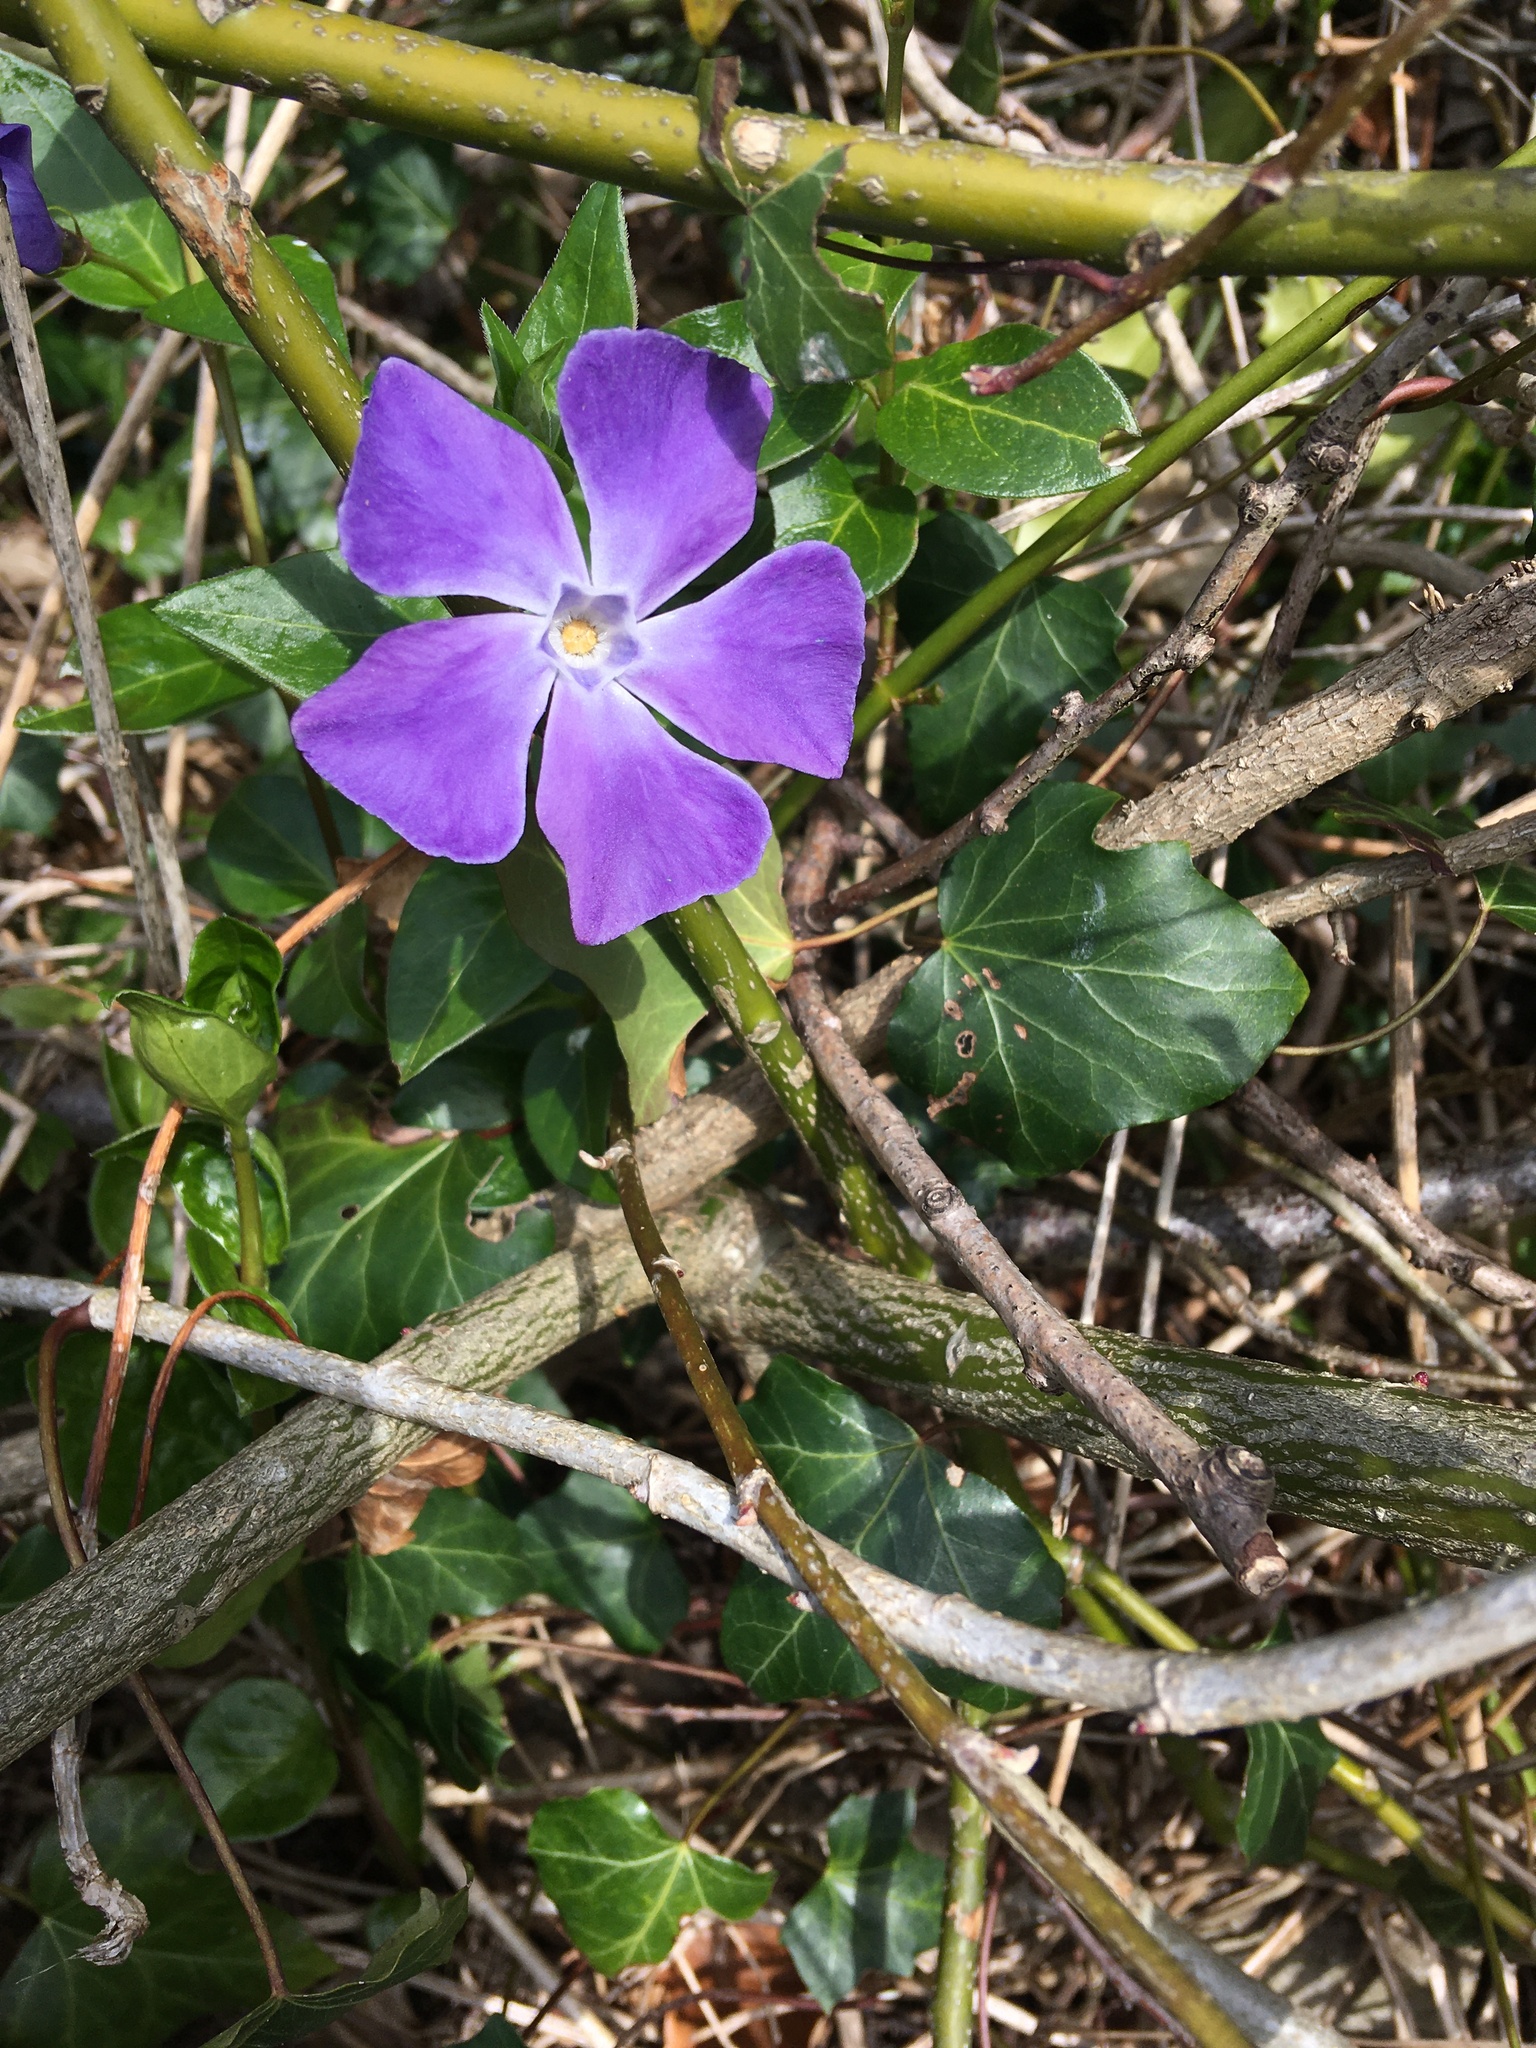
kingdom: Plantae
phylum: Tracheophyta
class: Magnoliopsida
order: Gentianales
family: Apocynaceae
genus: Vinca
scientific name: Vinca major
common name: Greater periwinkle
